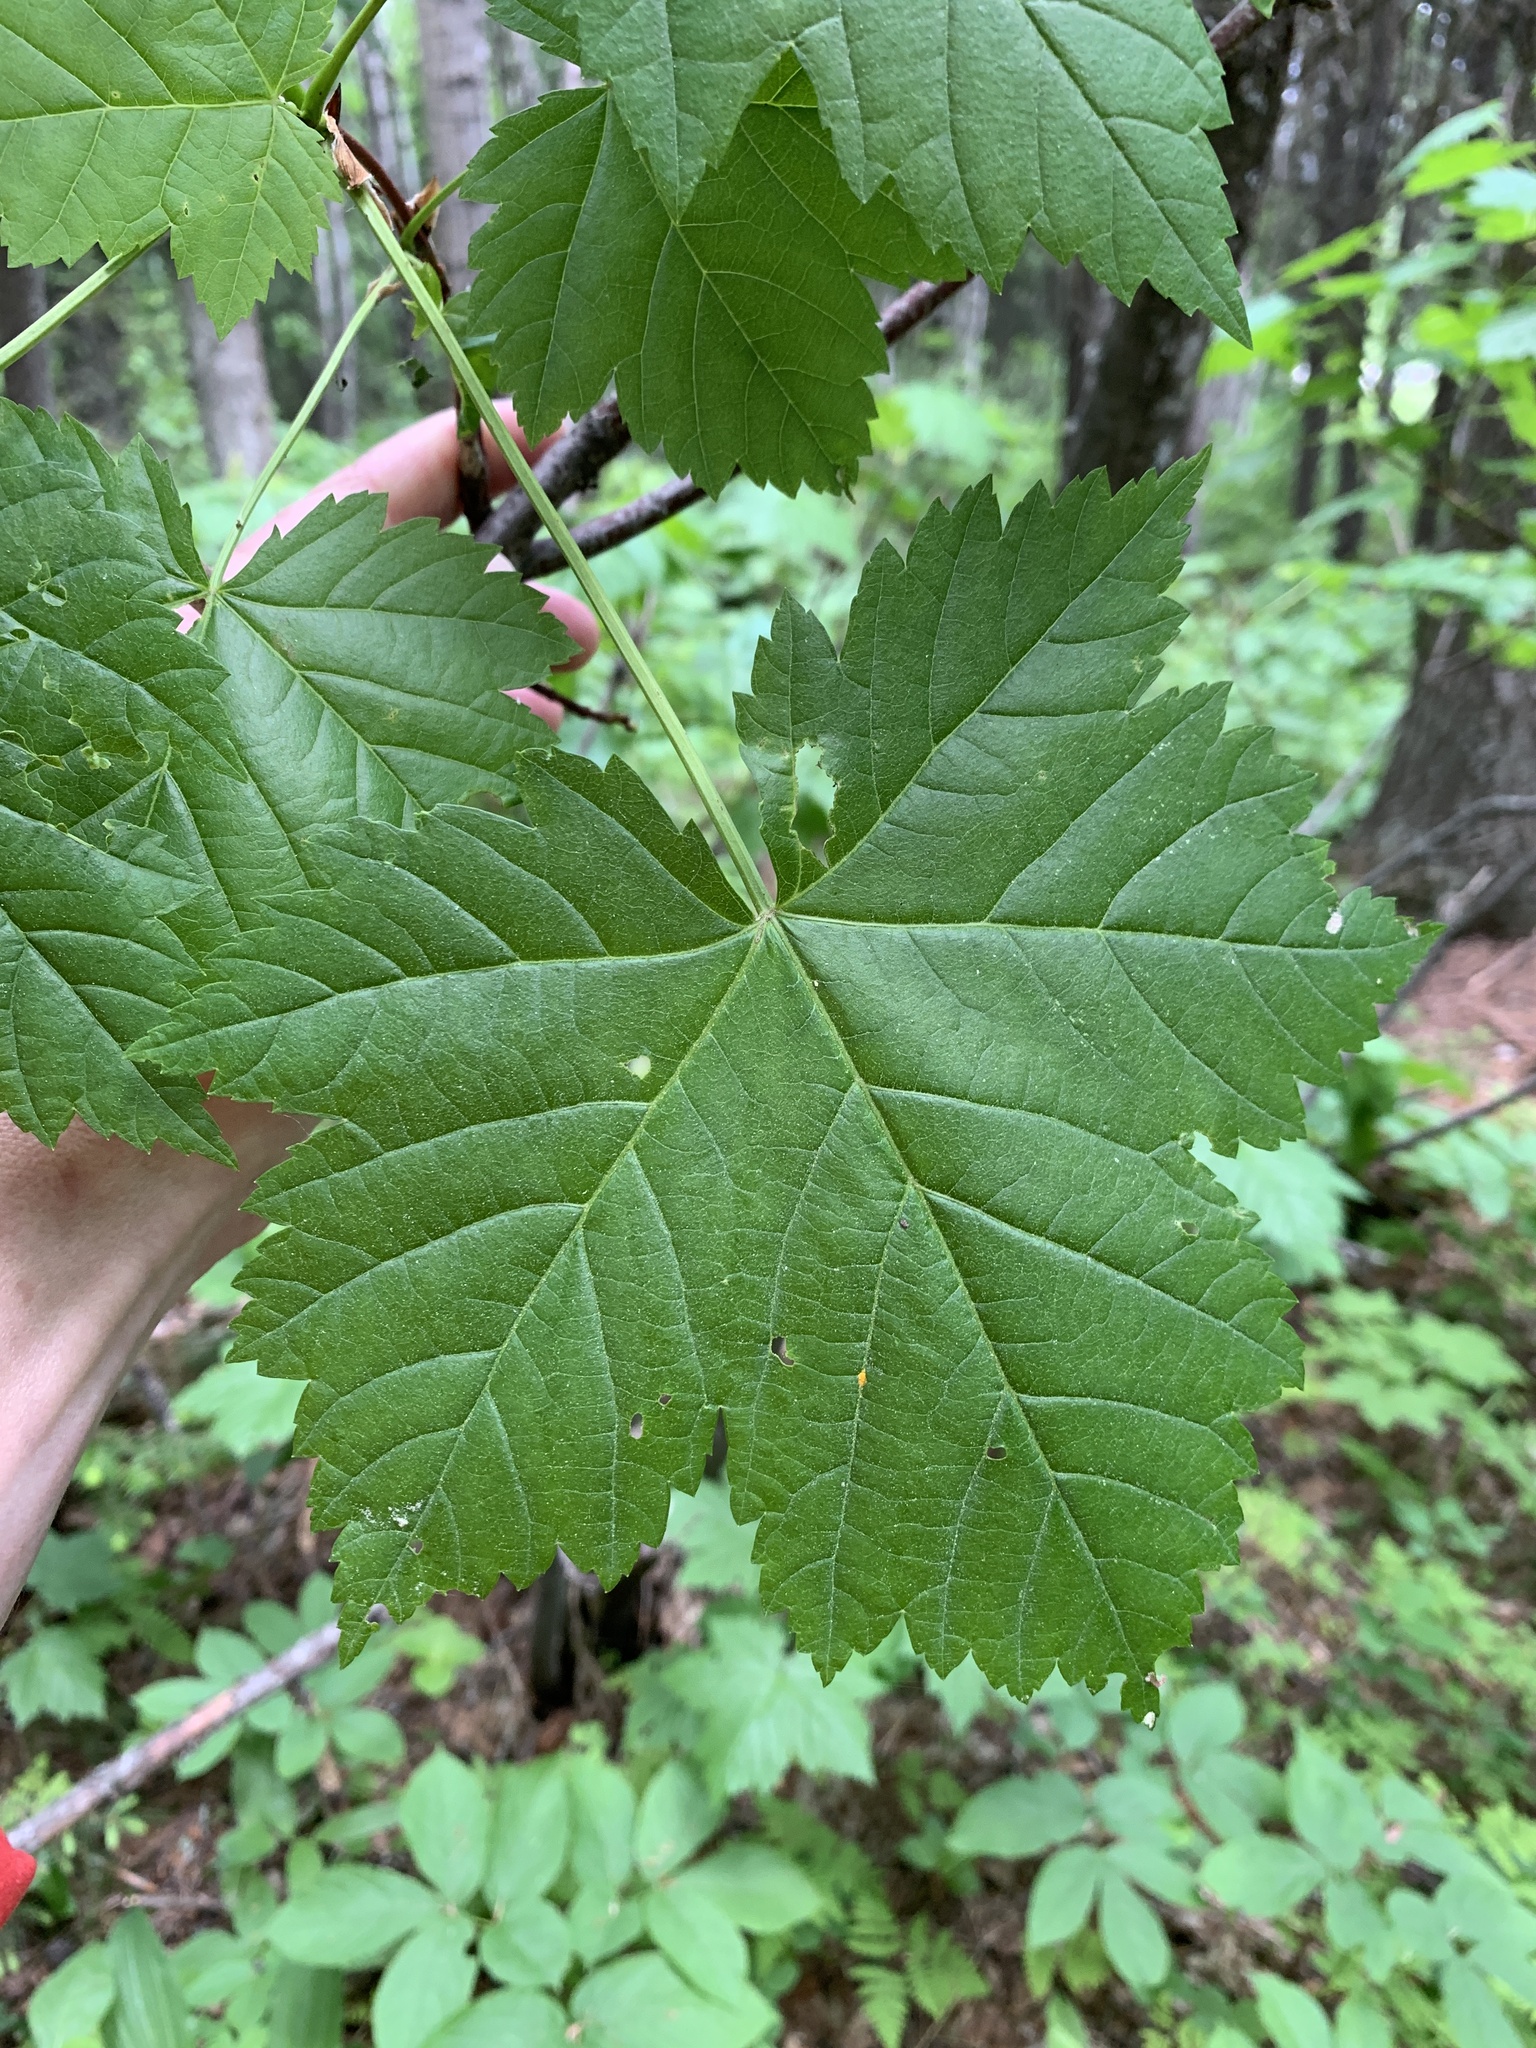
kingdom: Plantae
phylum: Tracheophyta
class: Magnoliopsida
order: Sapindales
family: Sapindaceae
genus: Acer
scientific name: Acer glabrum
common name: Rocky mountain maple
